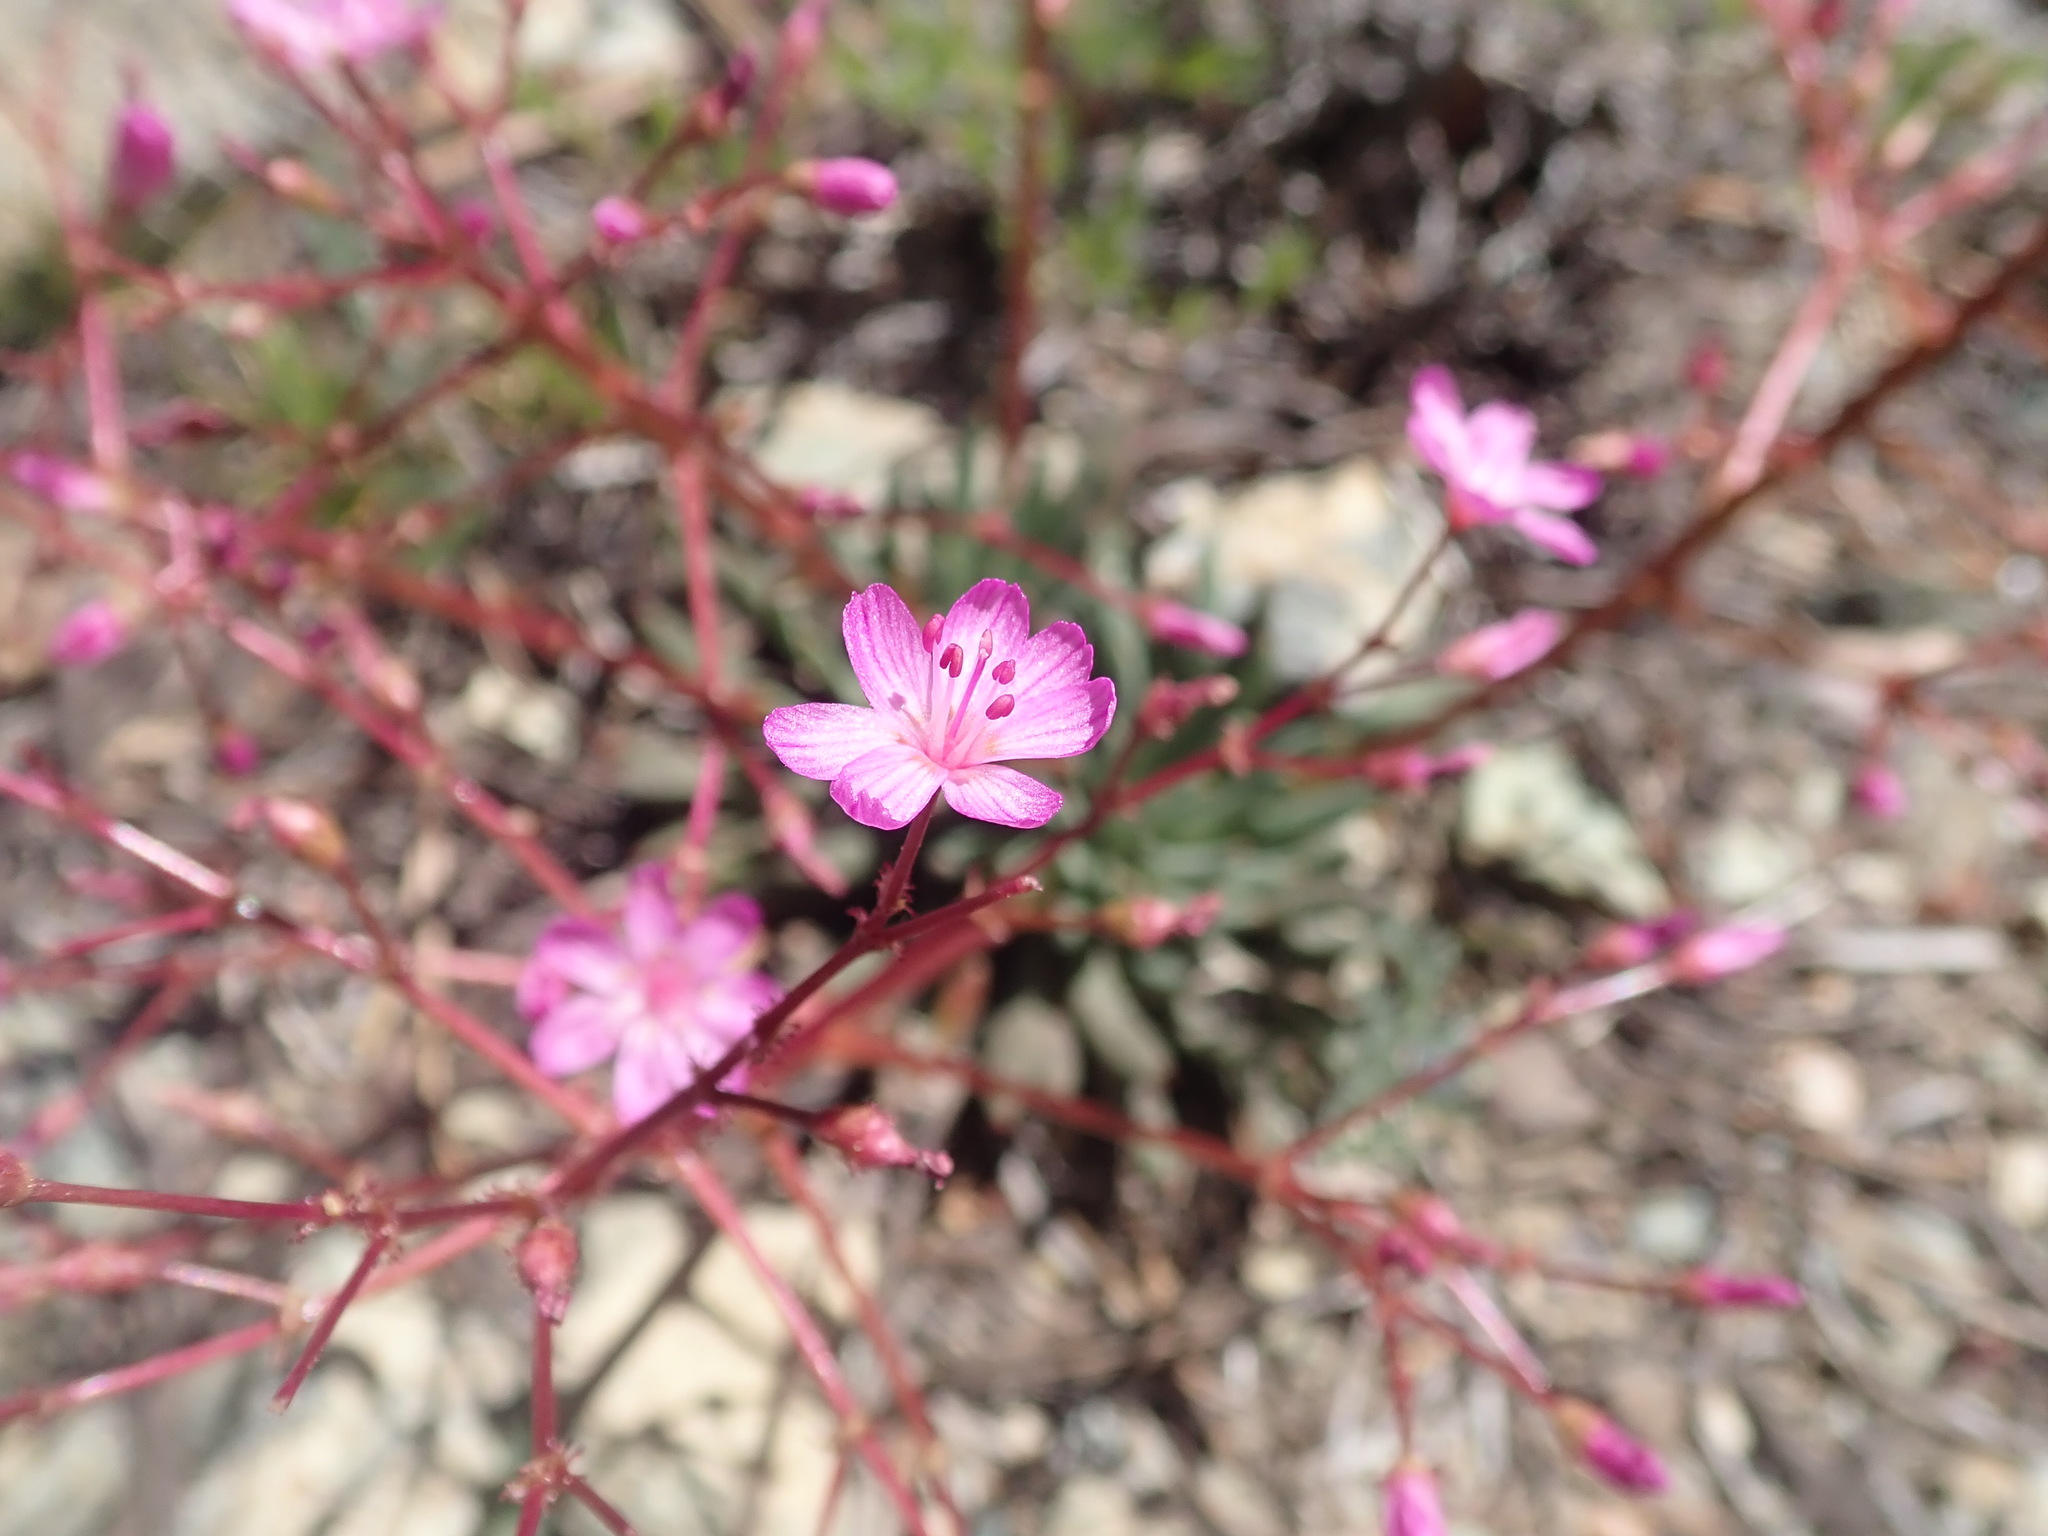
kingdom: Plantae
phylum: Tracheophyta
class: Magnoliopsida
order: Caryophyllales
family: Montiaceae
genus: Lewisia
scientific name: Lewisia leeana
